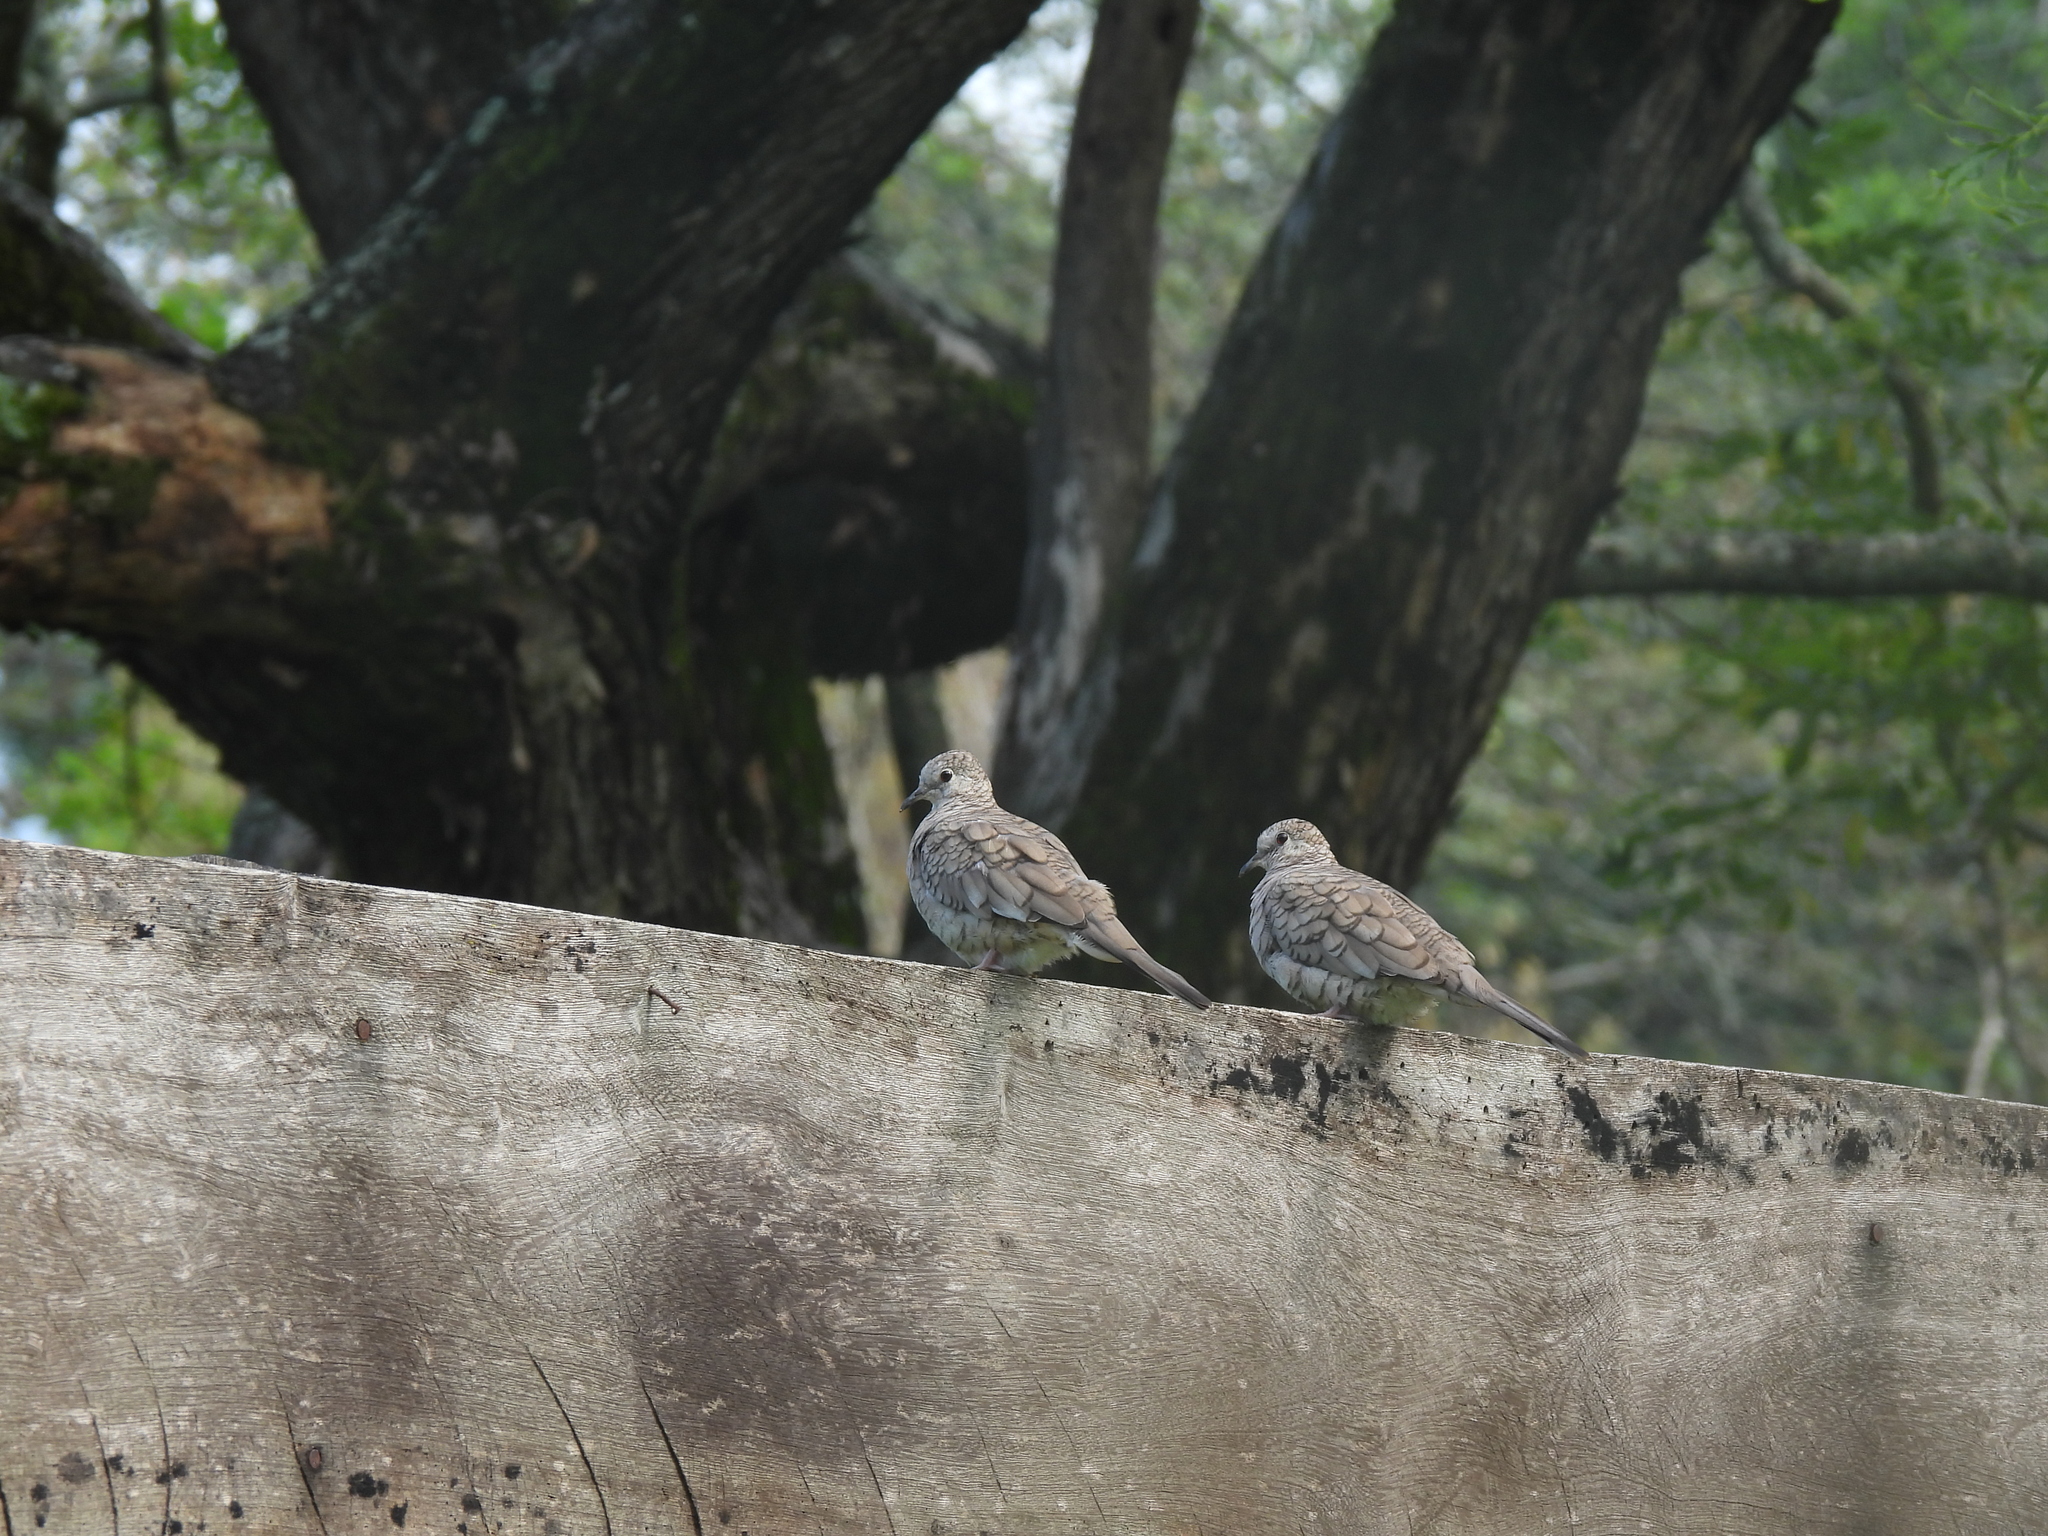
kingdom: Animalia
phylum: Chordata
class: Aves
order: Columbiformes
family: Columbidae
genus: Columbina
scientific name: Columbina inca
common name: Inca dove
